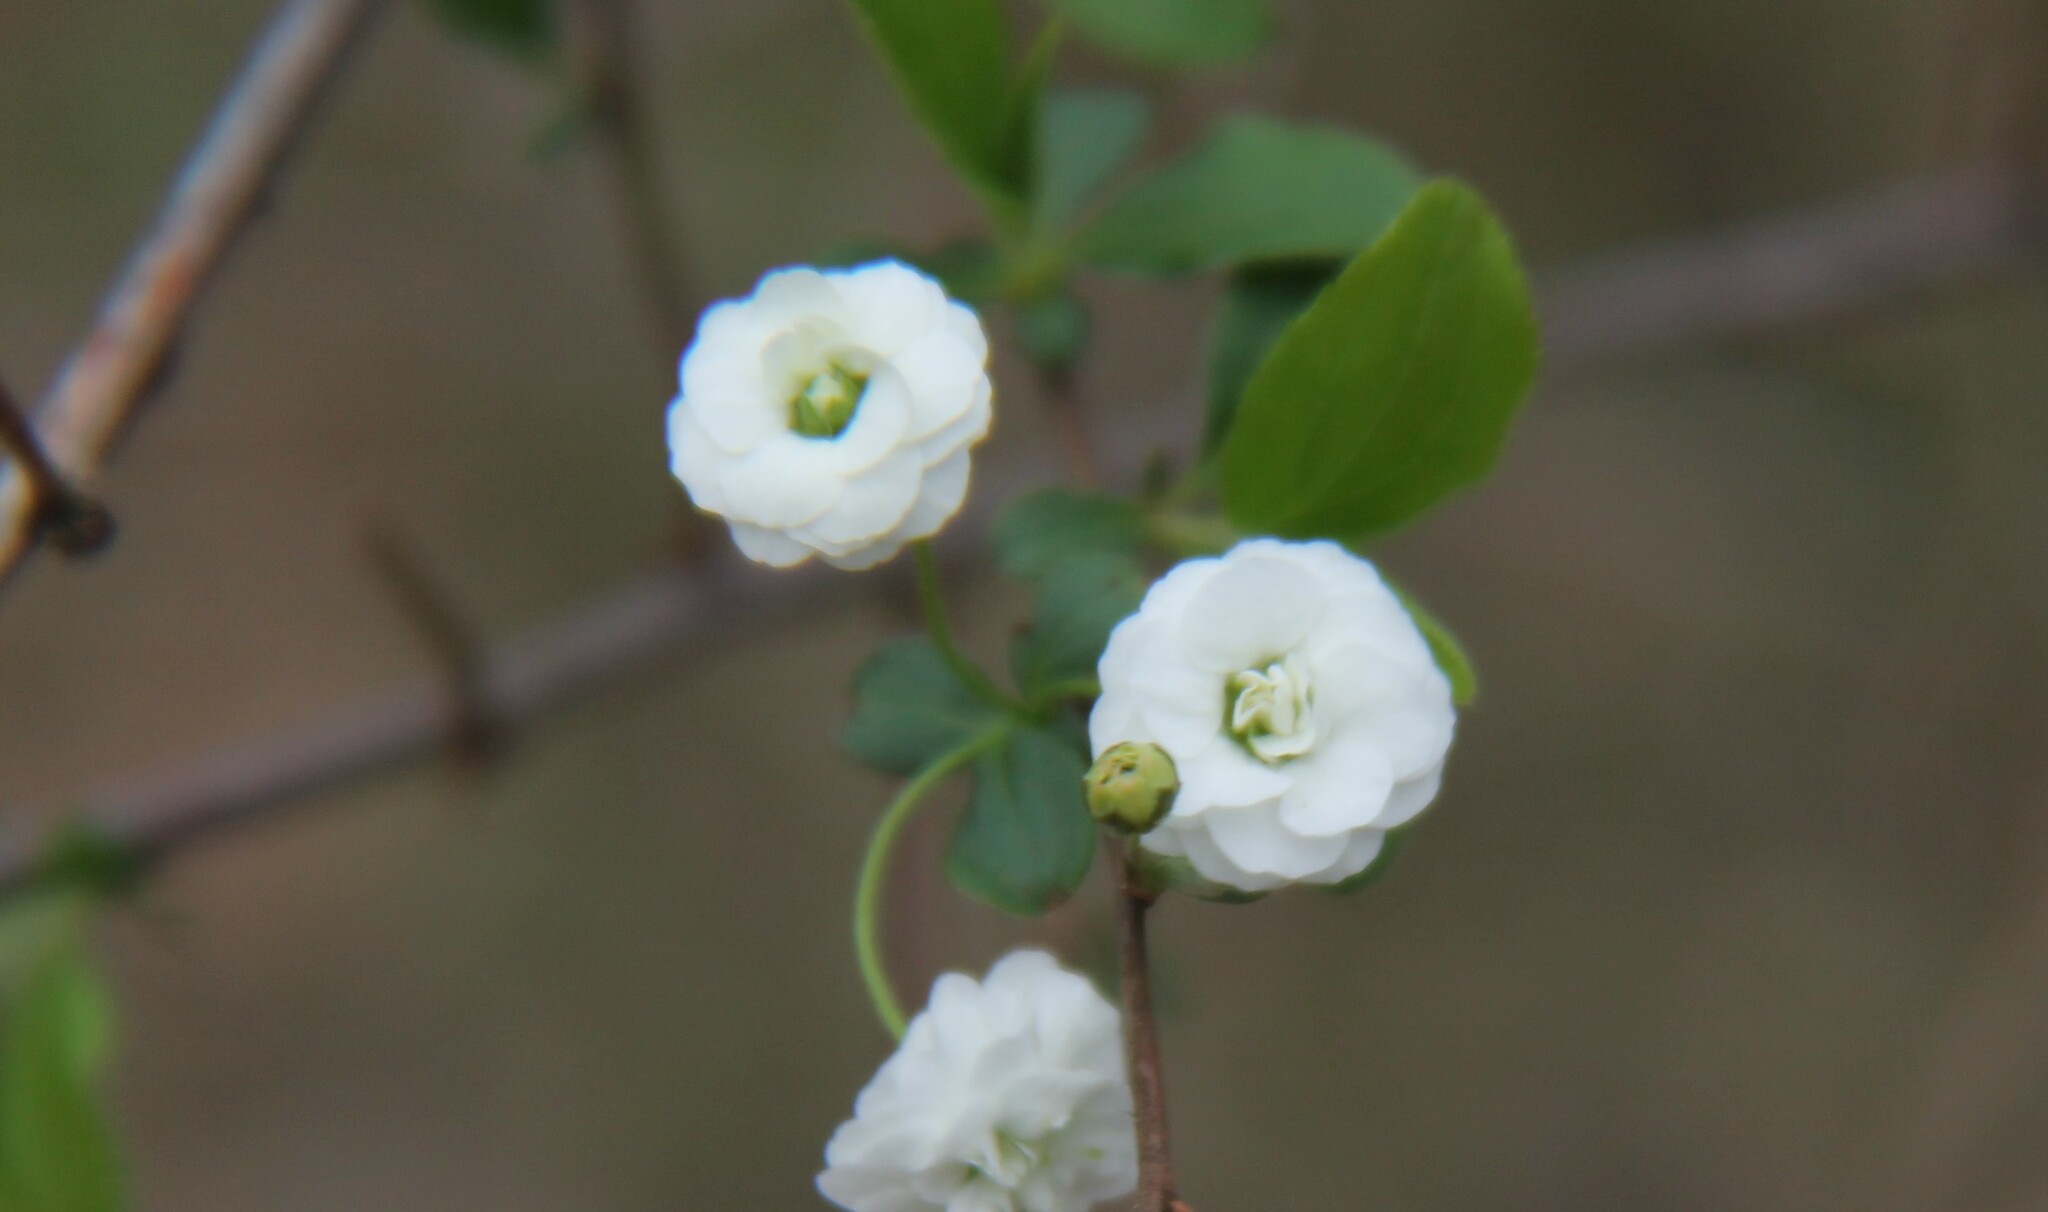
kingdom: Plantae
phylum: Tracheophyta
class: Magnoliopsida
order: Rosales
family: Rosaceae
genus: Spiraea
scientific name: Spiraea prunifolia
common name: Bridal-wreath spiraea
